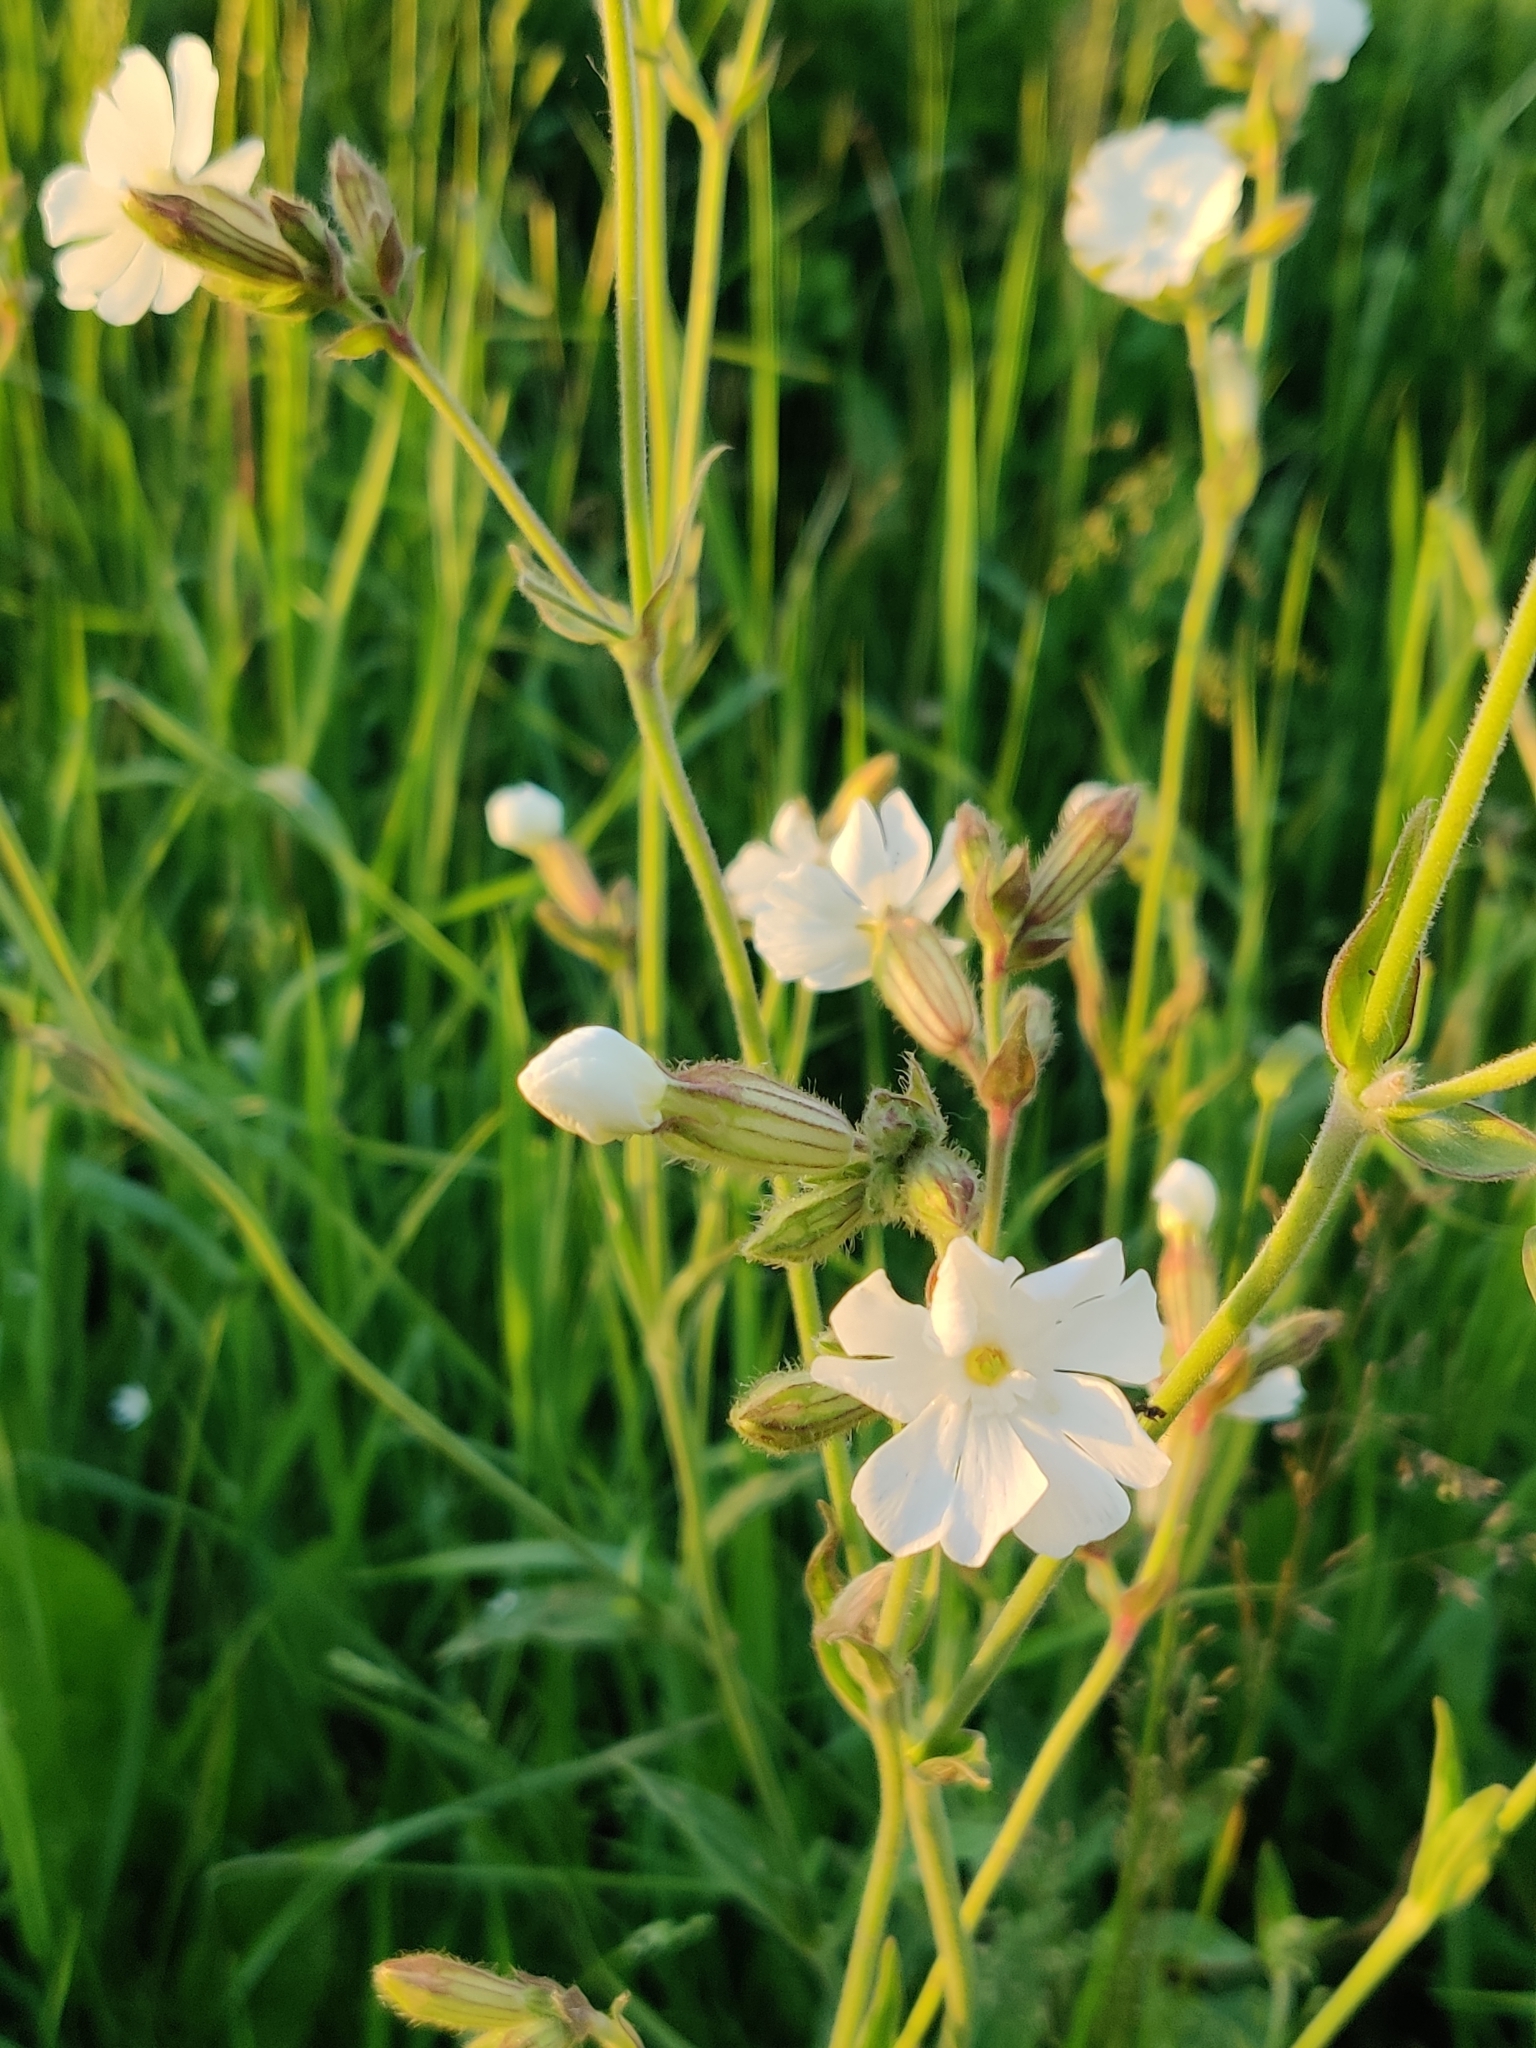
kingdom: Plantae
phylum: Tracheophyta
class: Magnoliopsida
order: Caryophyllales
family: Caryophyllaceae
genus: Silene
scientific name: Silene latifolia
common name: White campion
